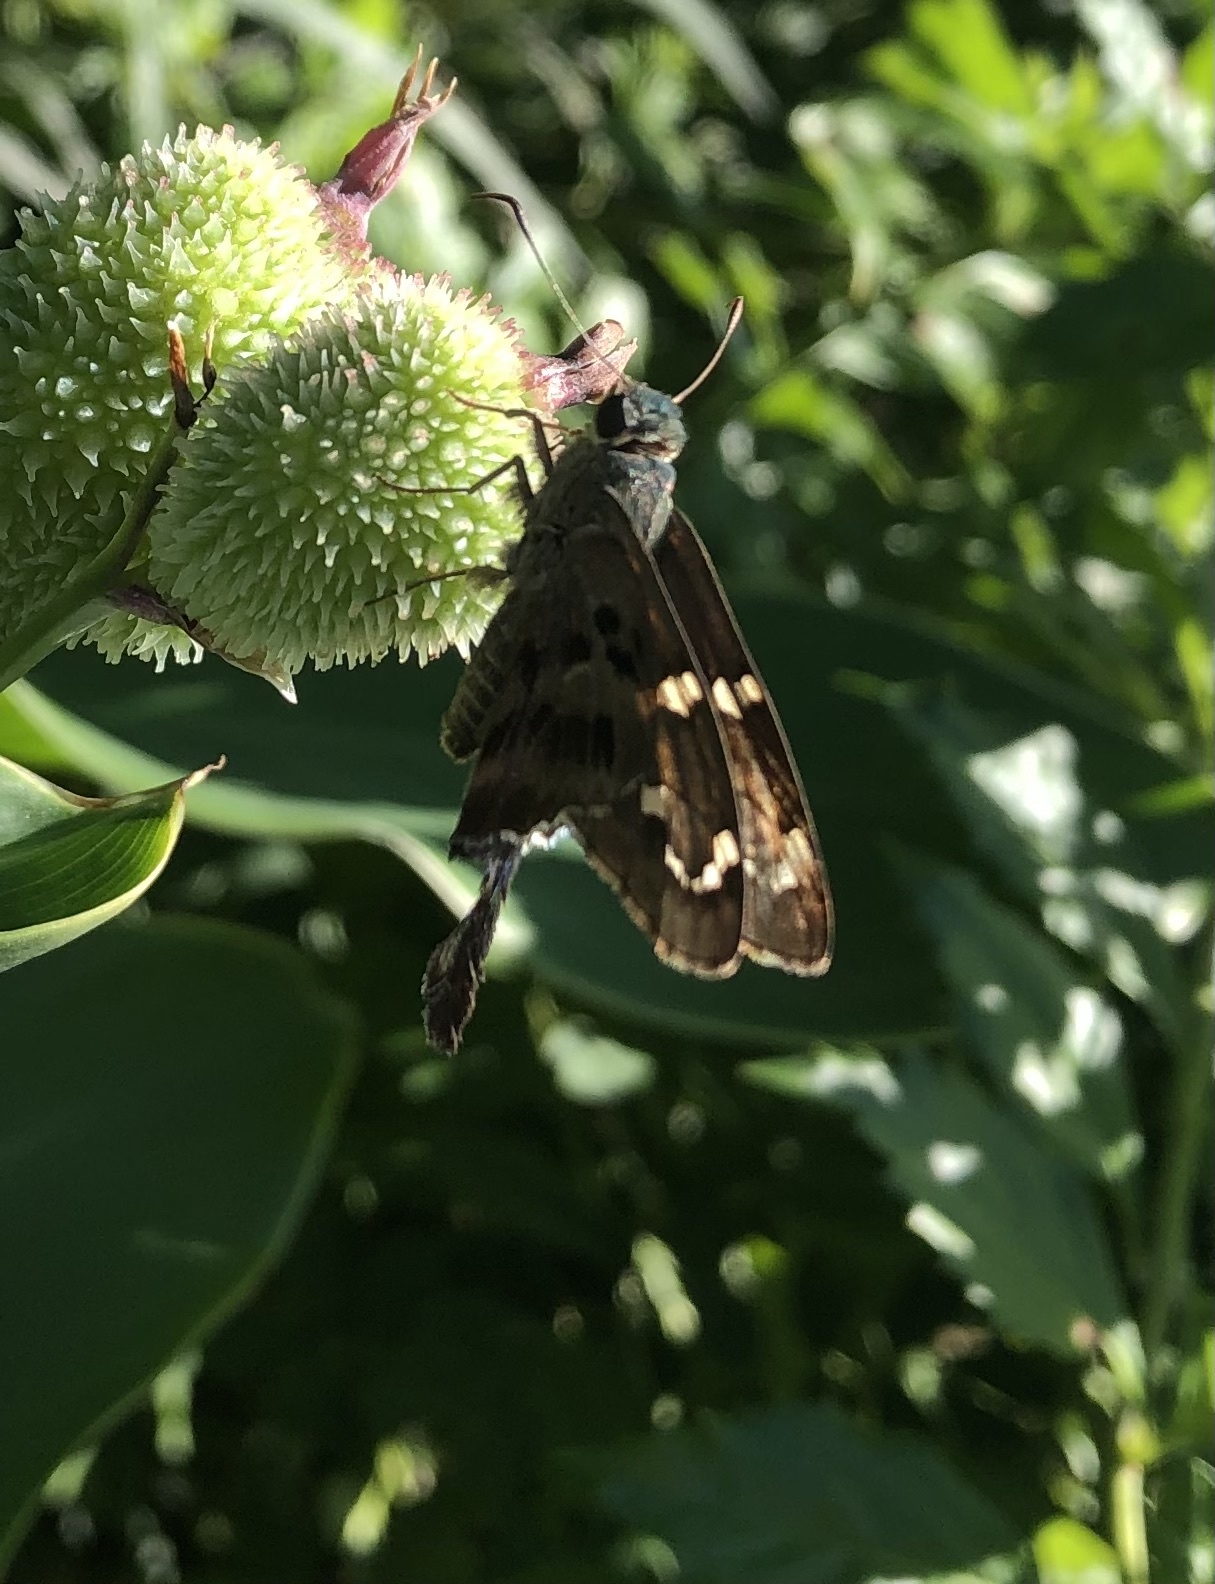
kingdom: Animalia
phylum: Arthropoda
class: Insecta
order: Lepidoptera
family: Hesperiidae
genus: Urbanus
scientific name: Urbanus proteus
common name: Long-tailed skipper
